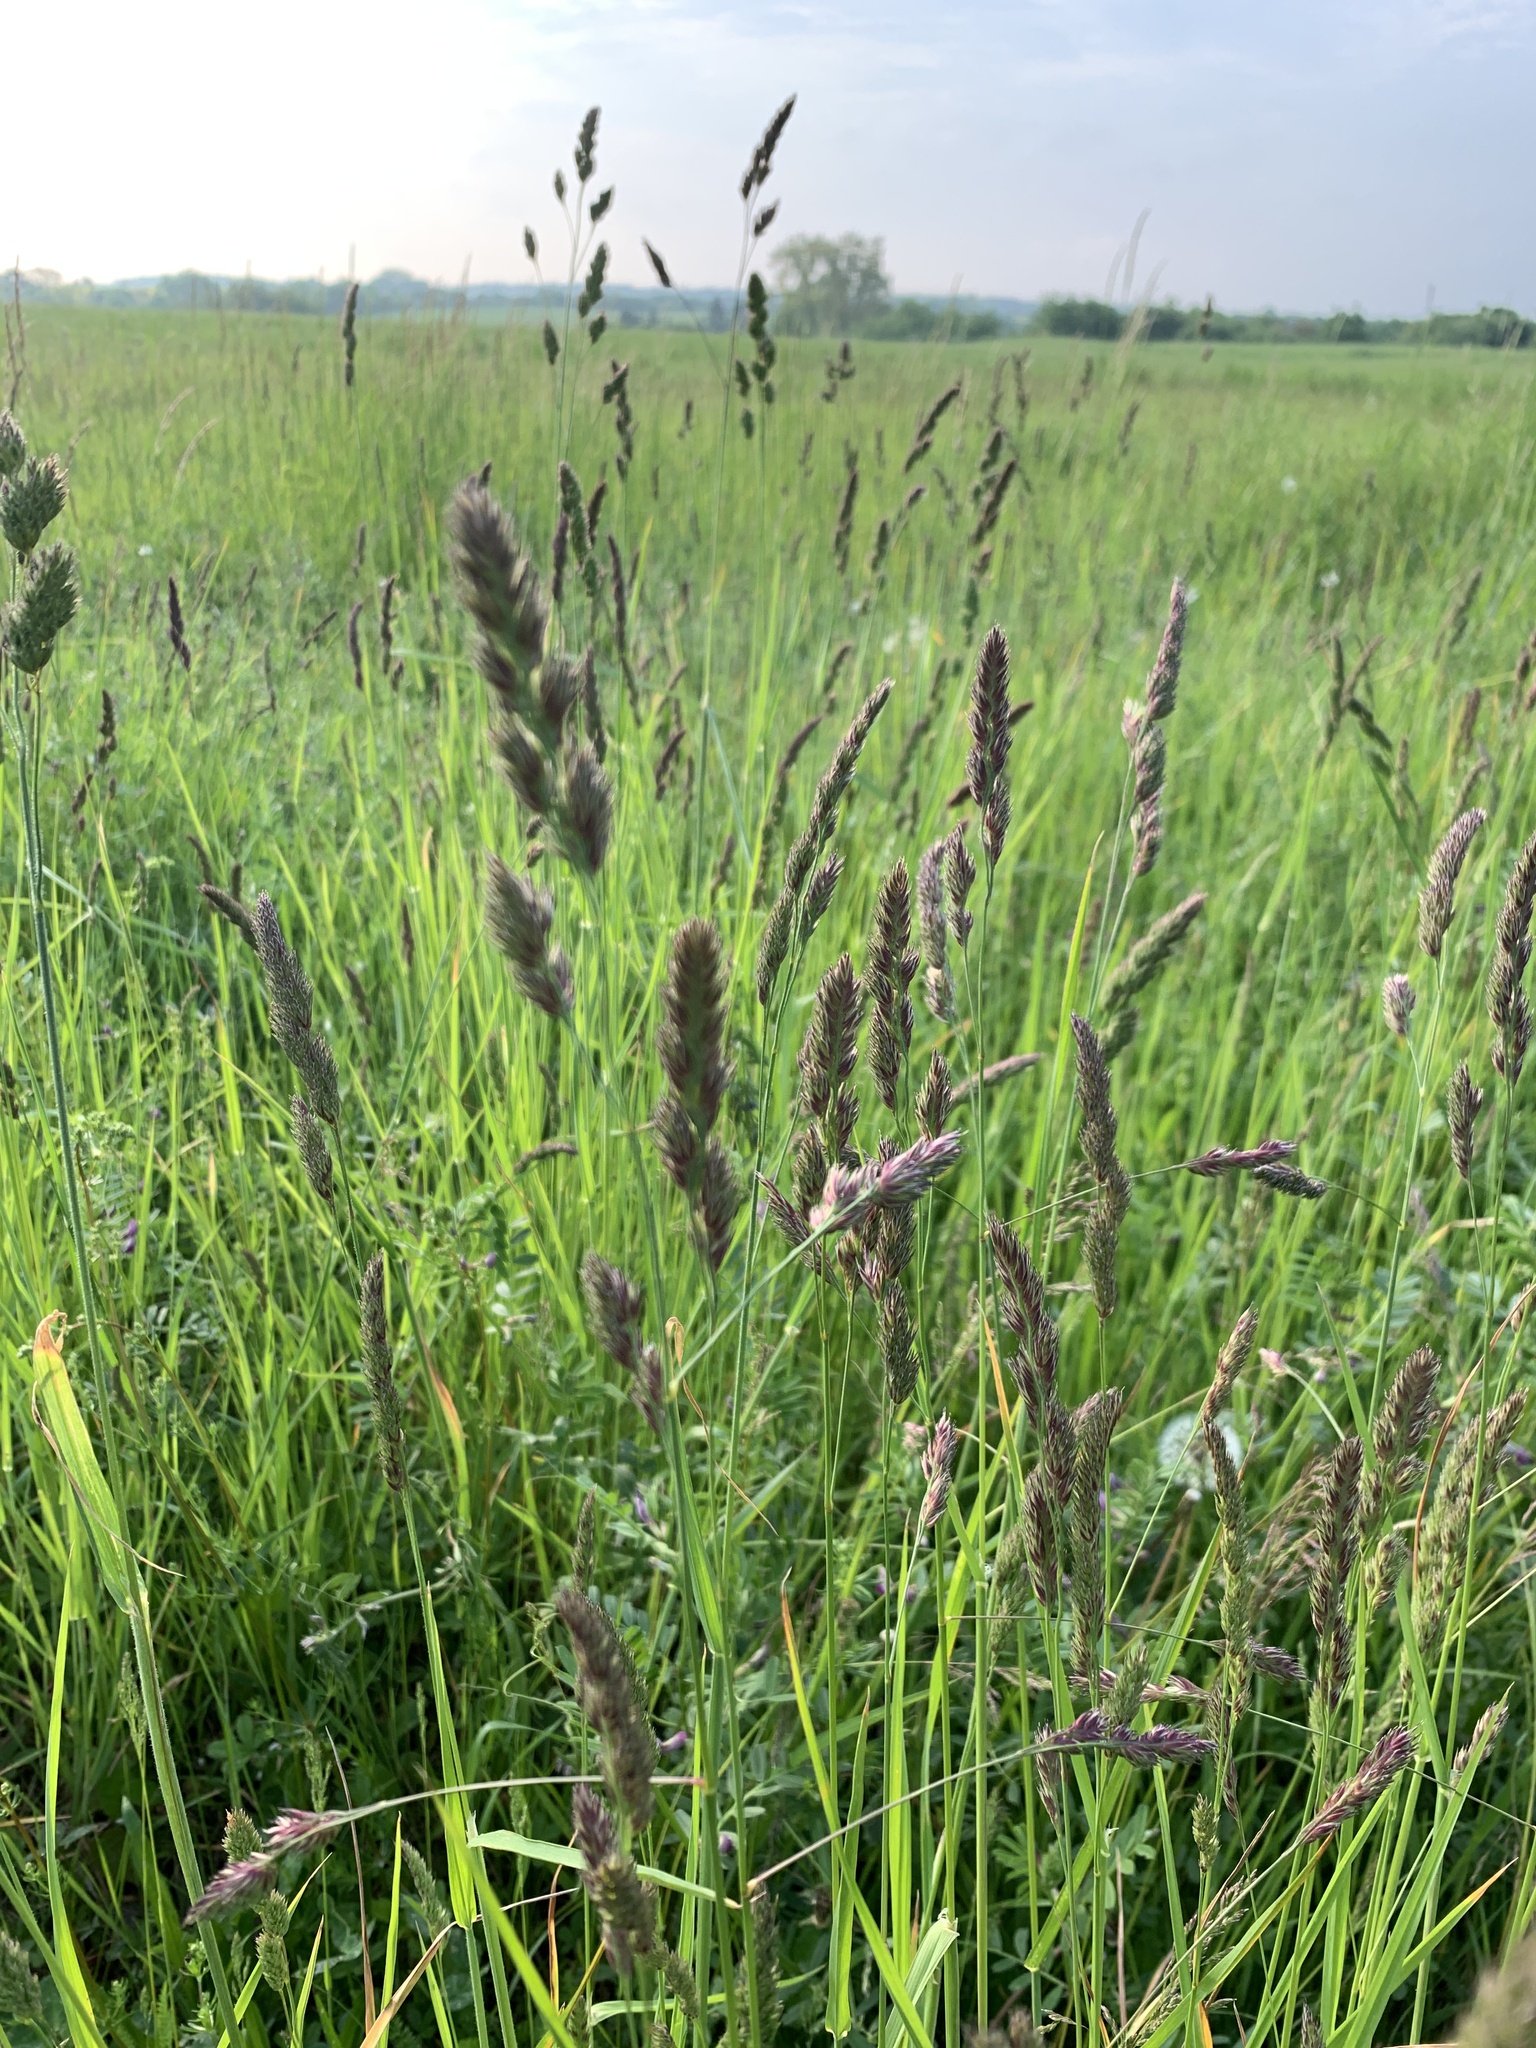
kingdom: Plantae
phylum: Tracheophyta
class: Liliopsida
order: Poales
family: Poaceae
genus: Dactylis
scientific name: Dactylis glomerata
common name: Orchardgrass
